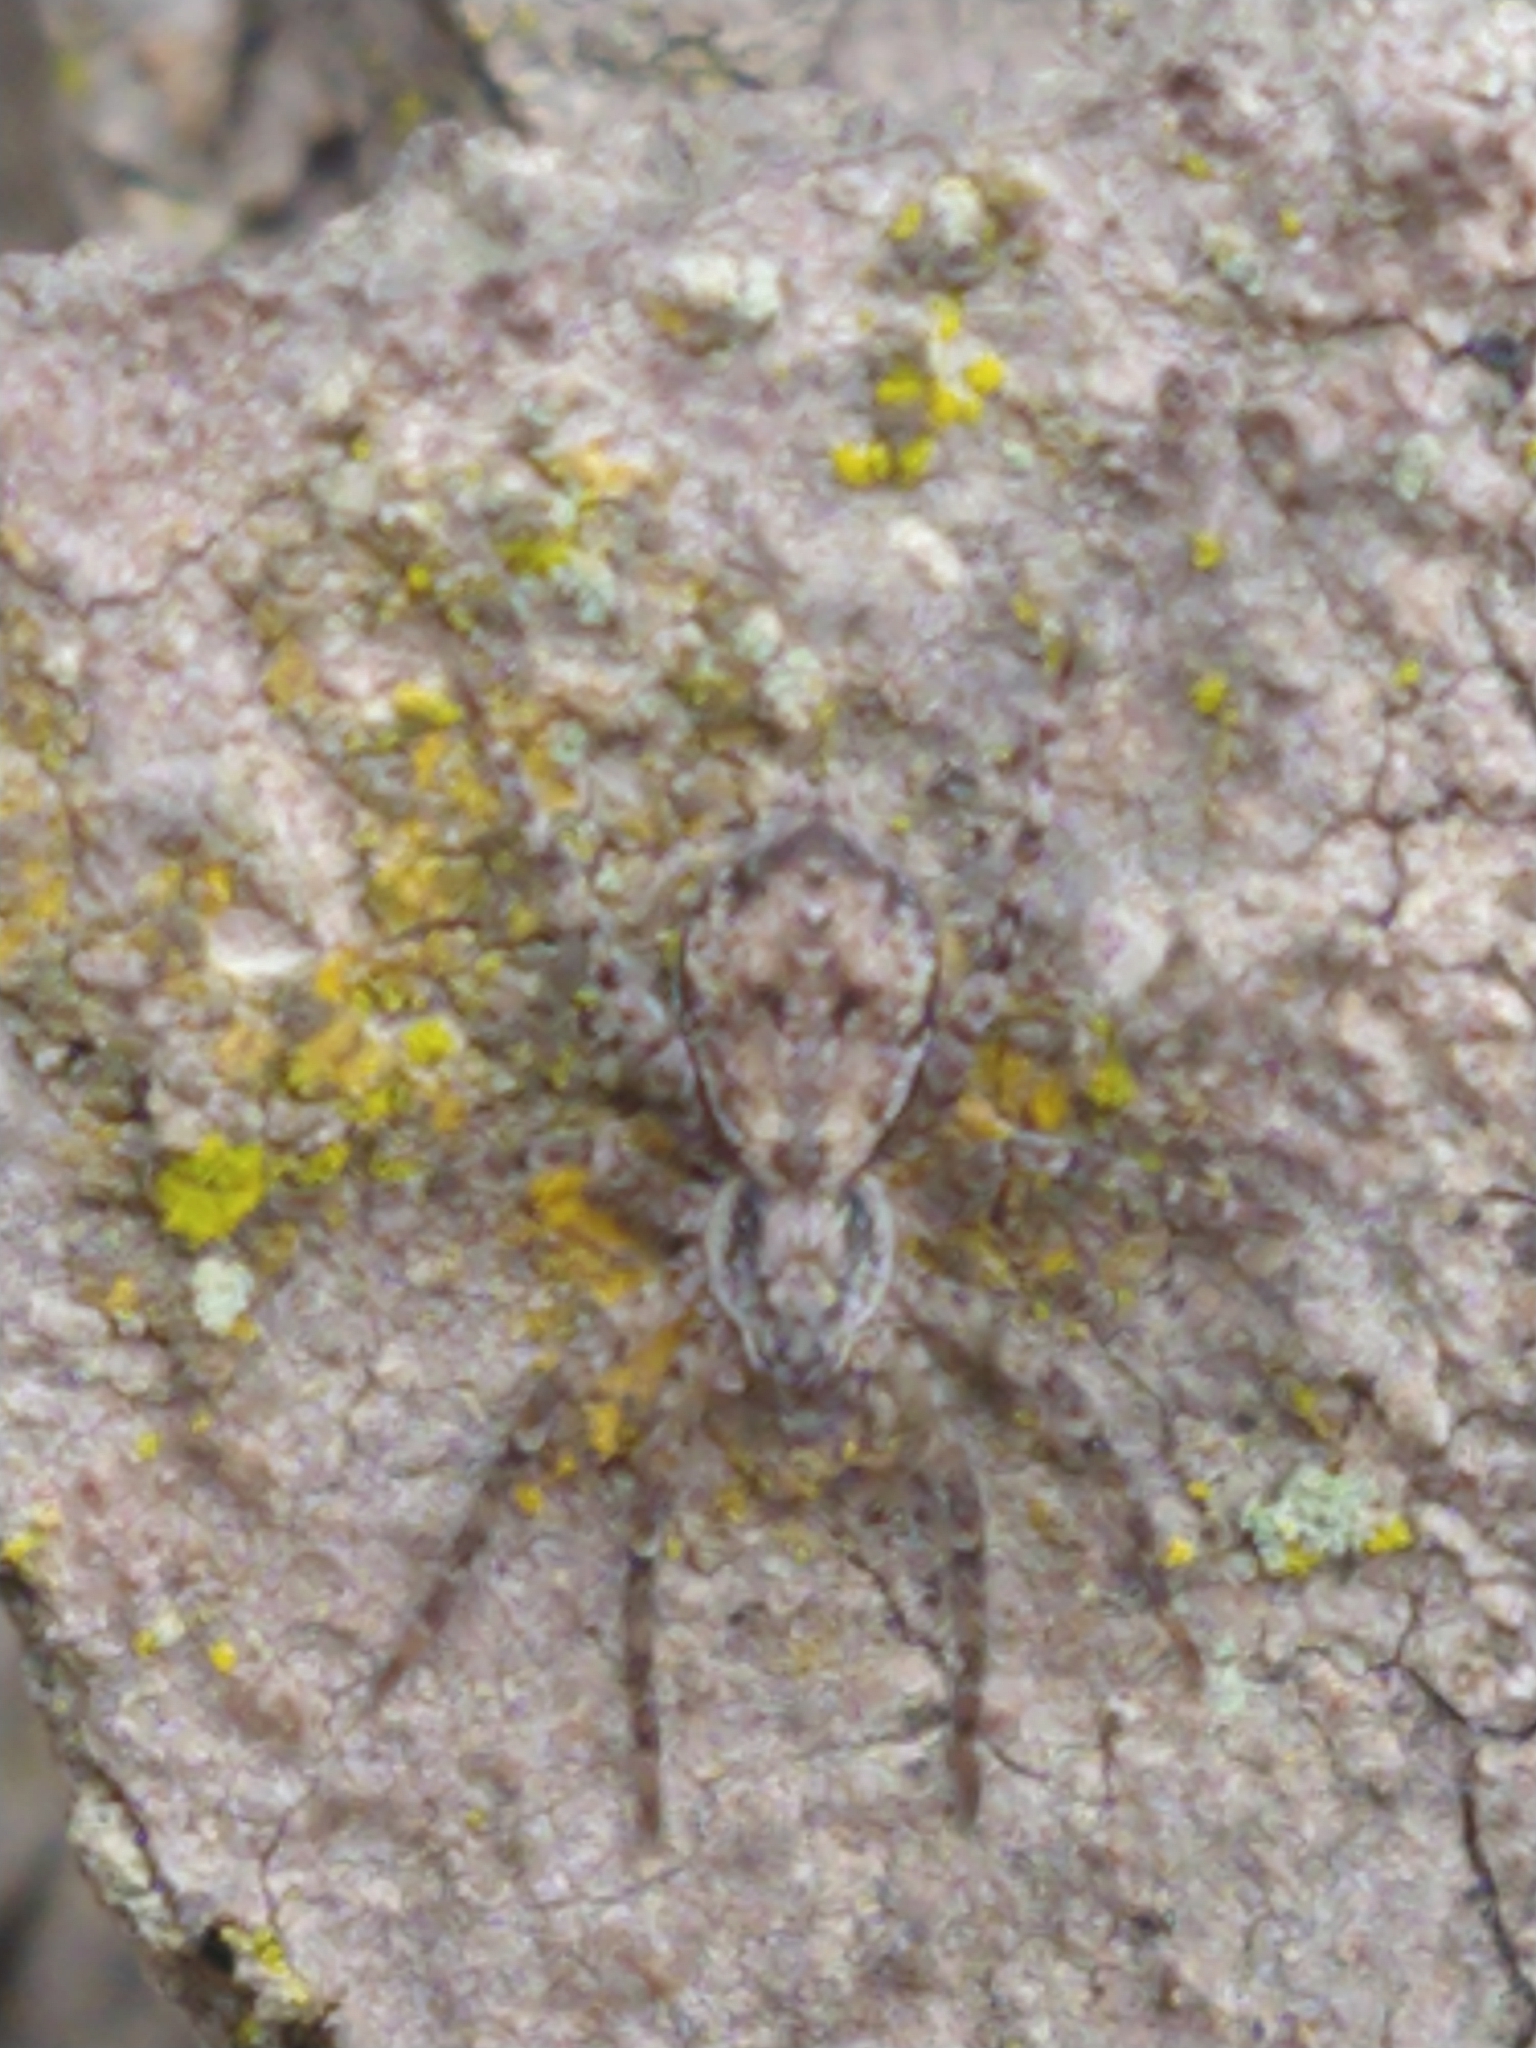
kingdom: Animalia
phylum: Arthropoda
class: Arachnida
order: Araneae
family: Anyphaenidae
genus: Tomopisthes
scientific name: Tomopisthes horrendus
